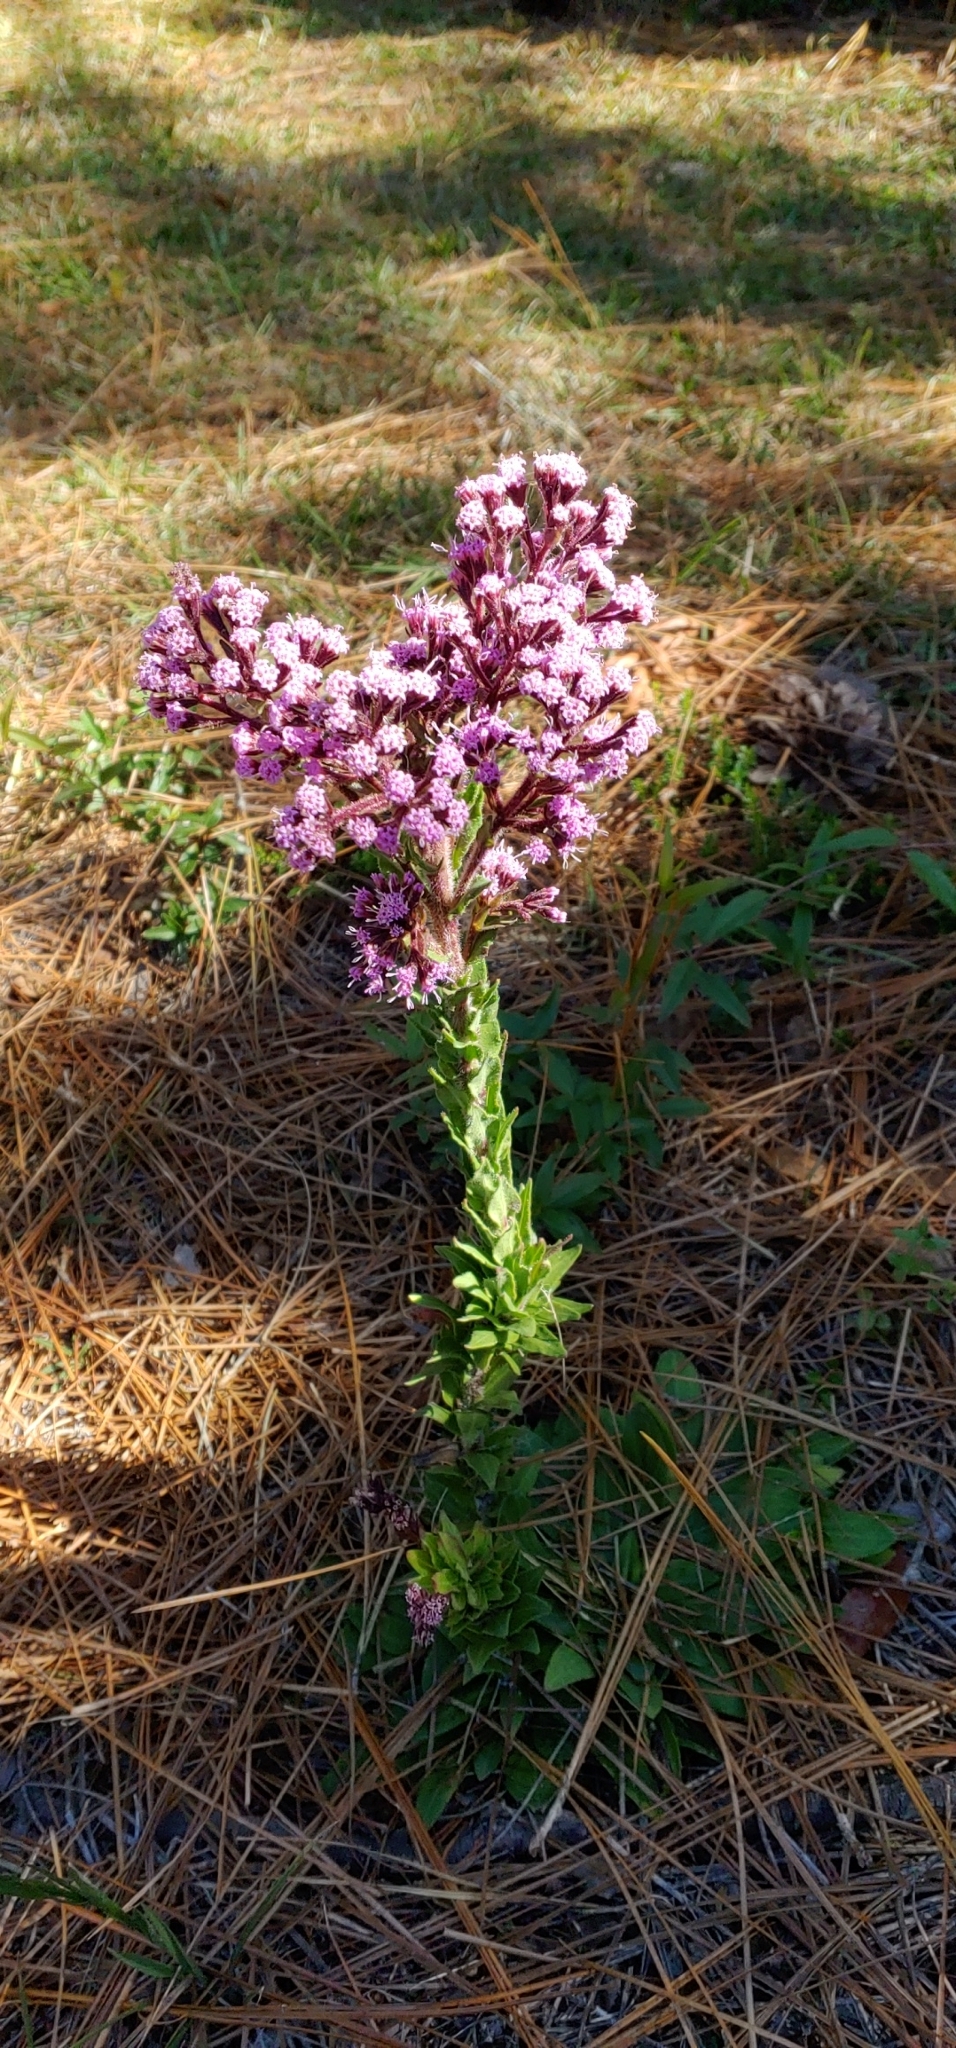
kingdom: Plantae
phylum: Tracheophyta
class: Magnoliopsida
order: Asterales
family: Asteraceae
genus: Carphephorus
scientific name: Carphephorus paniculatus
